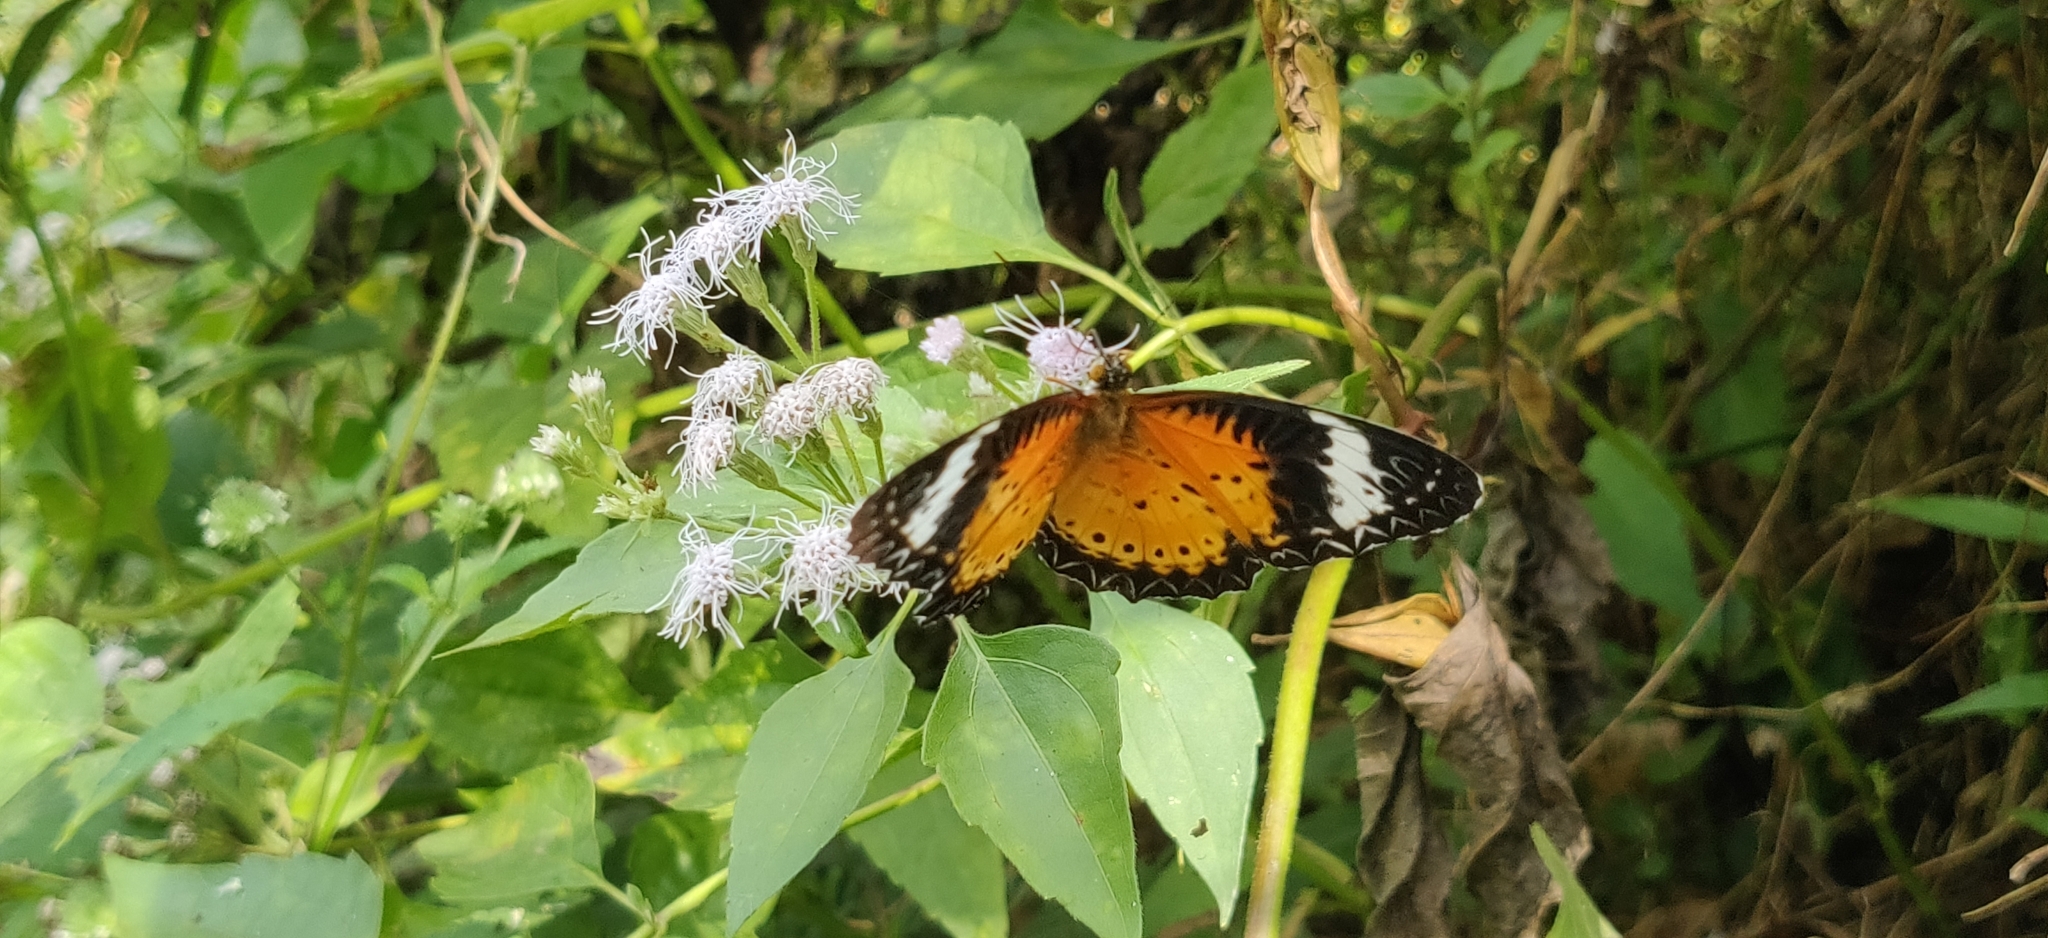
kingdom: Animalia
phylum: Arthropoda
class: Insecta
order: Lepidoptera
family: Nymphalidae
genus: Cethosia
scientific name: Cethosia cyane
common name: Leopard lacewing butterfly
